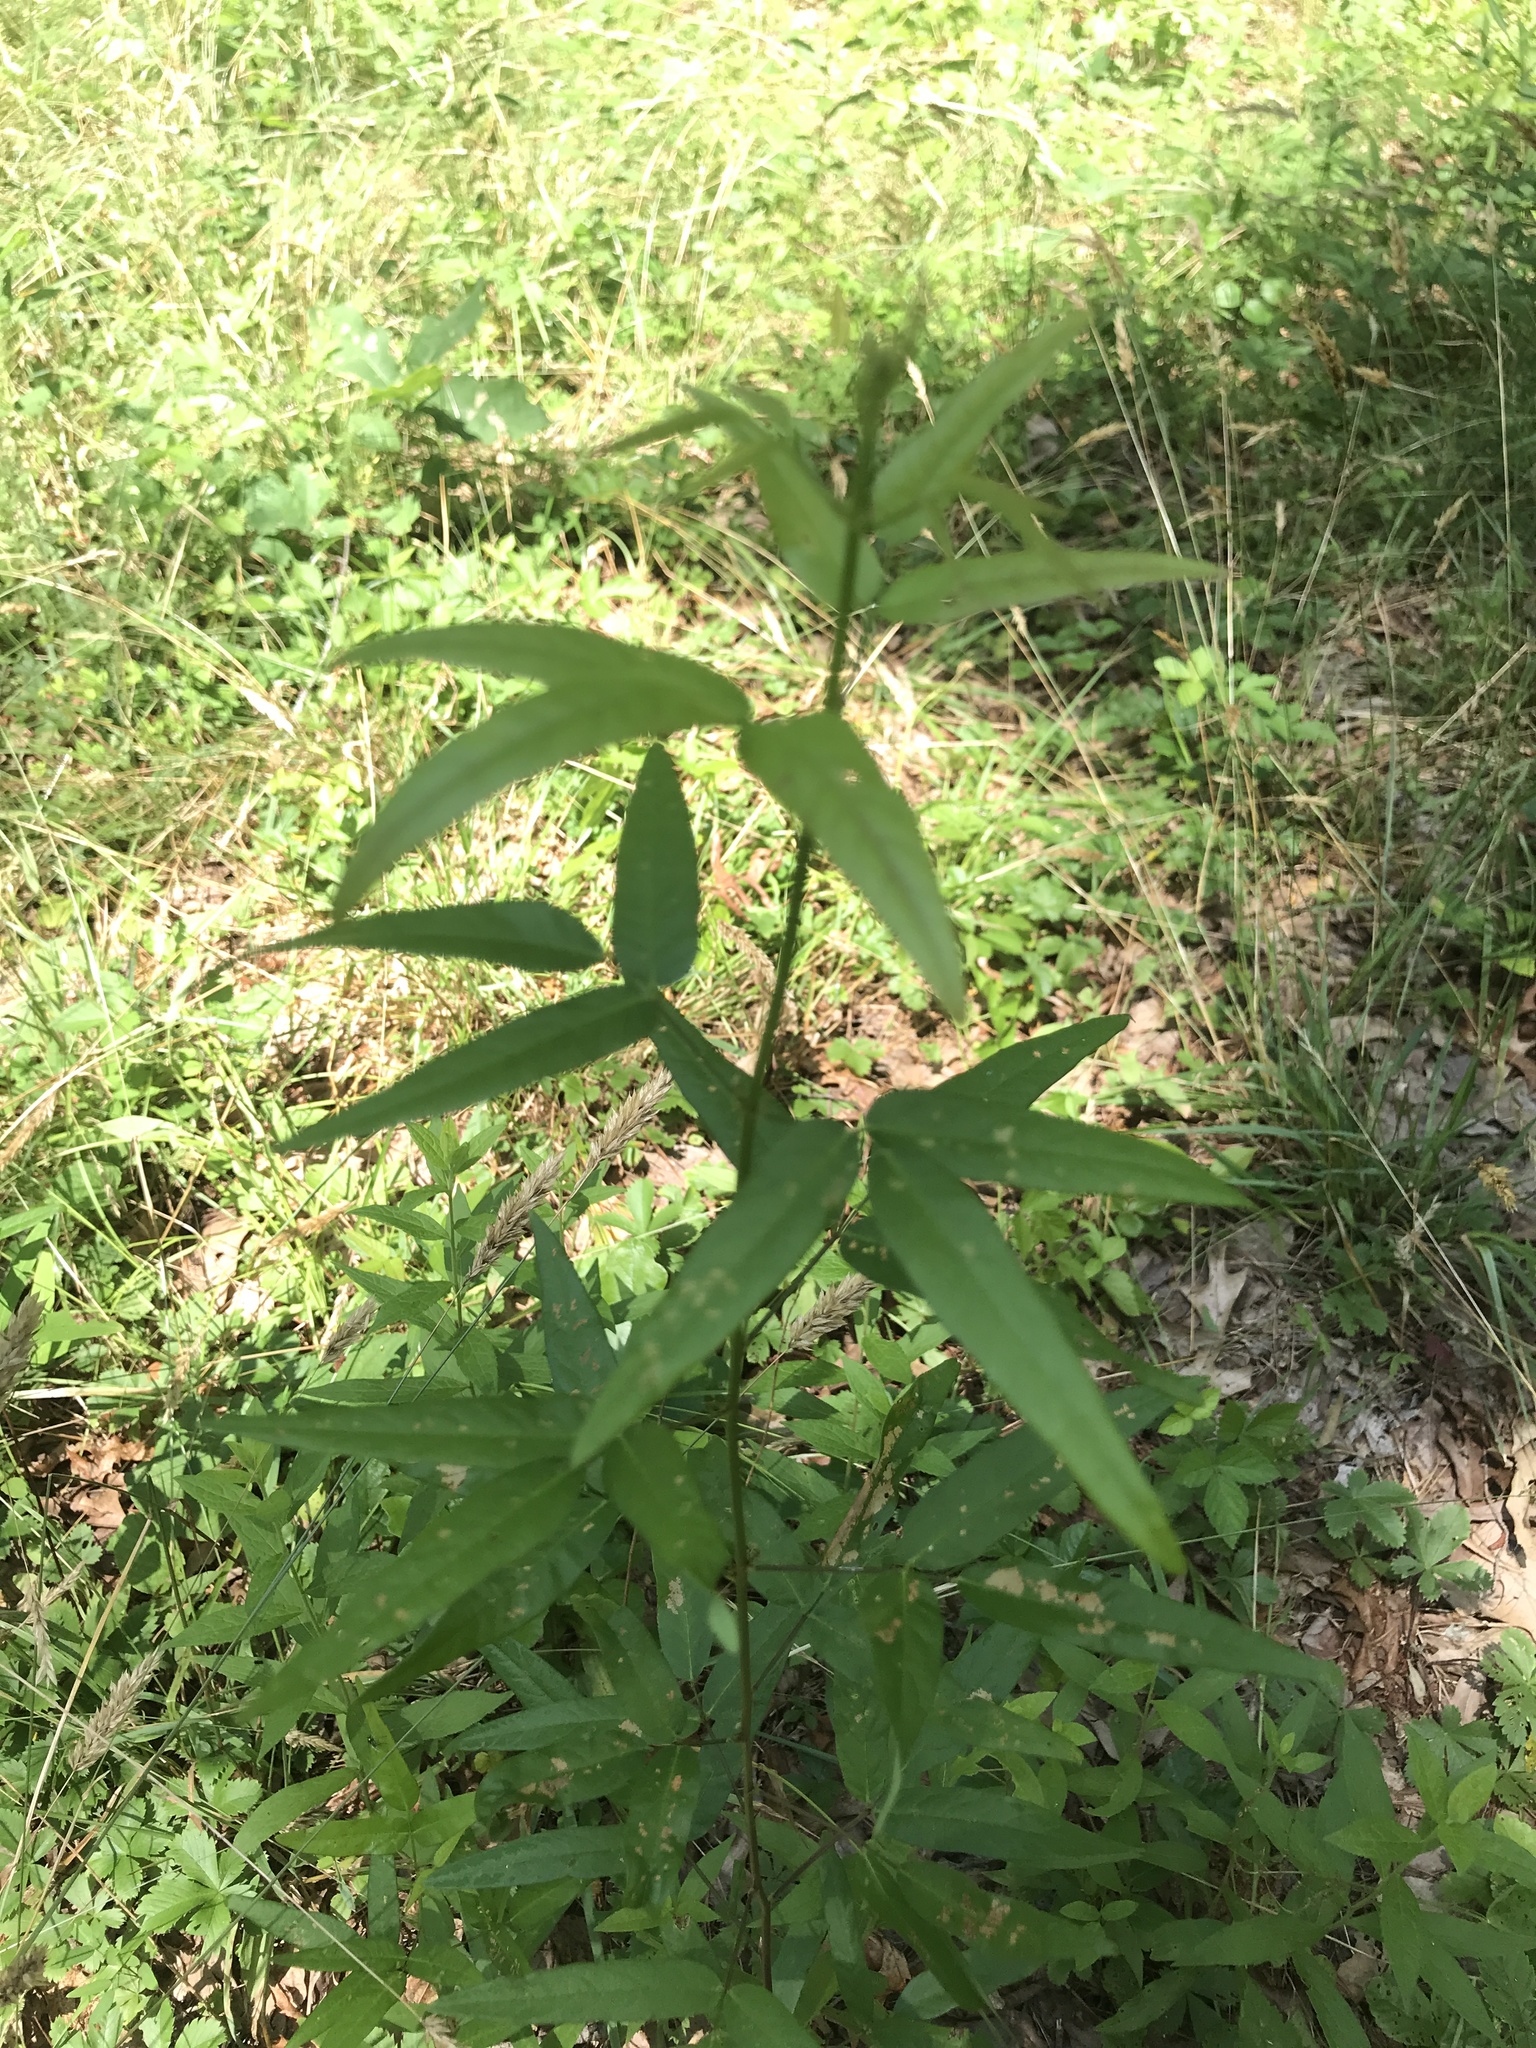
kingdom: Plantae
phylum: Tracheophyta
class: Magnoliopsida
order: Fabales
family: Fabaceae
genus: Desmodium
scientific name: Desmodium paniculatum
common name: Panicled tick-clover
